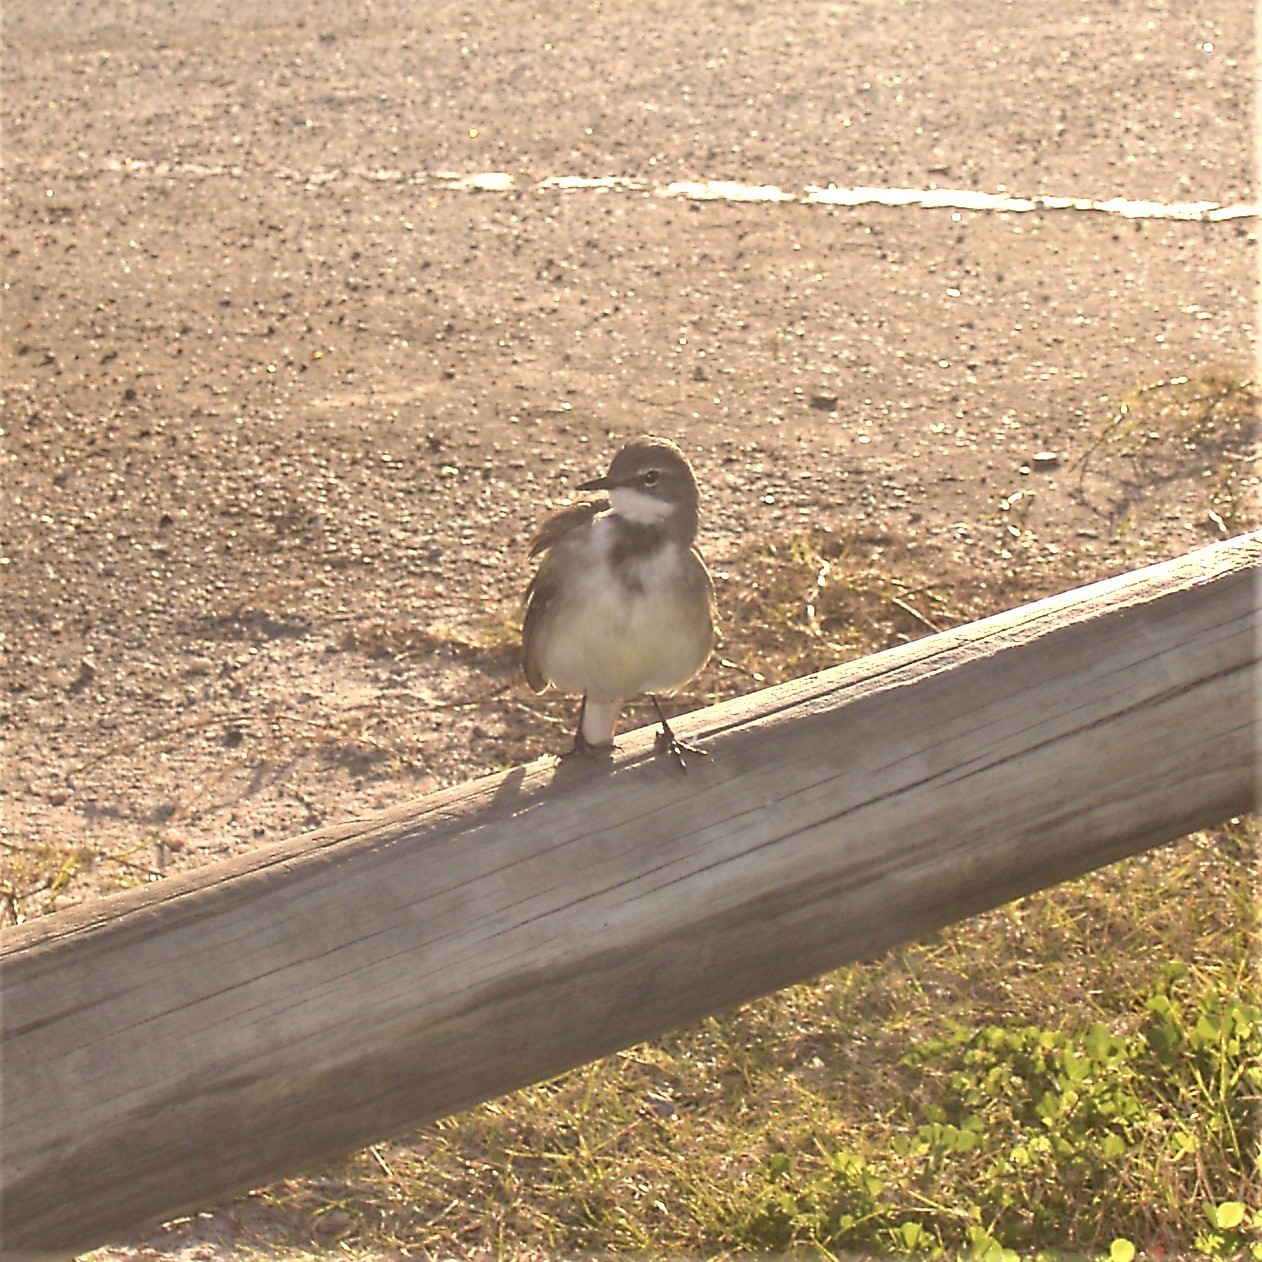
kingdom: Animalia
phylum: Chordata
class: Aves
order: Passeriformes
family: Motacillidae
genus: Motacilla
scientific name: Motacilla capensis
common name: Cape wagtail
